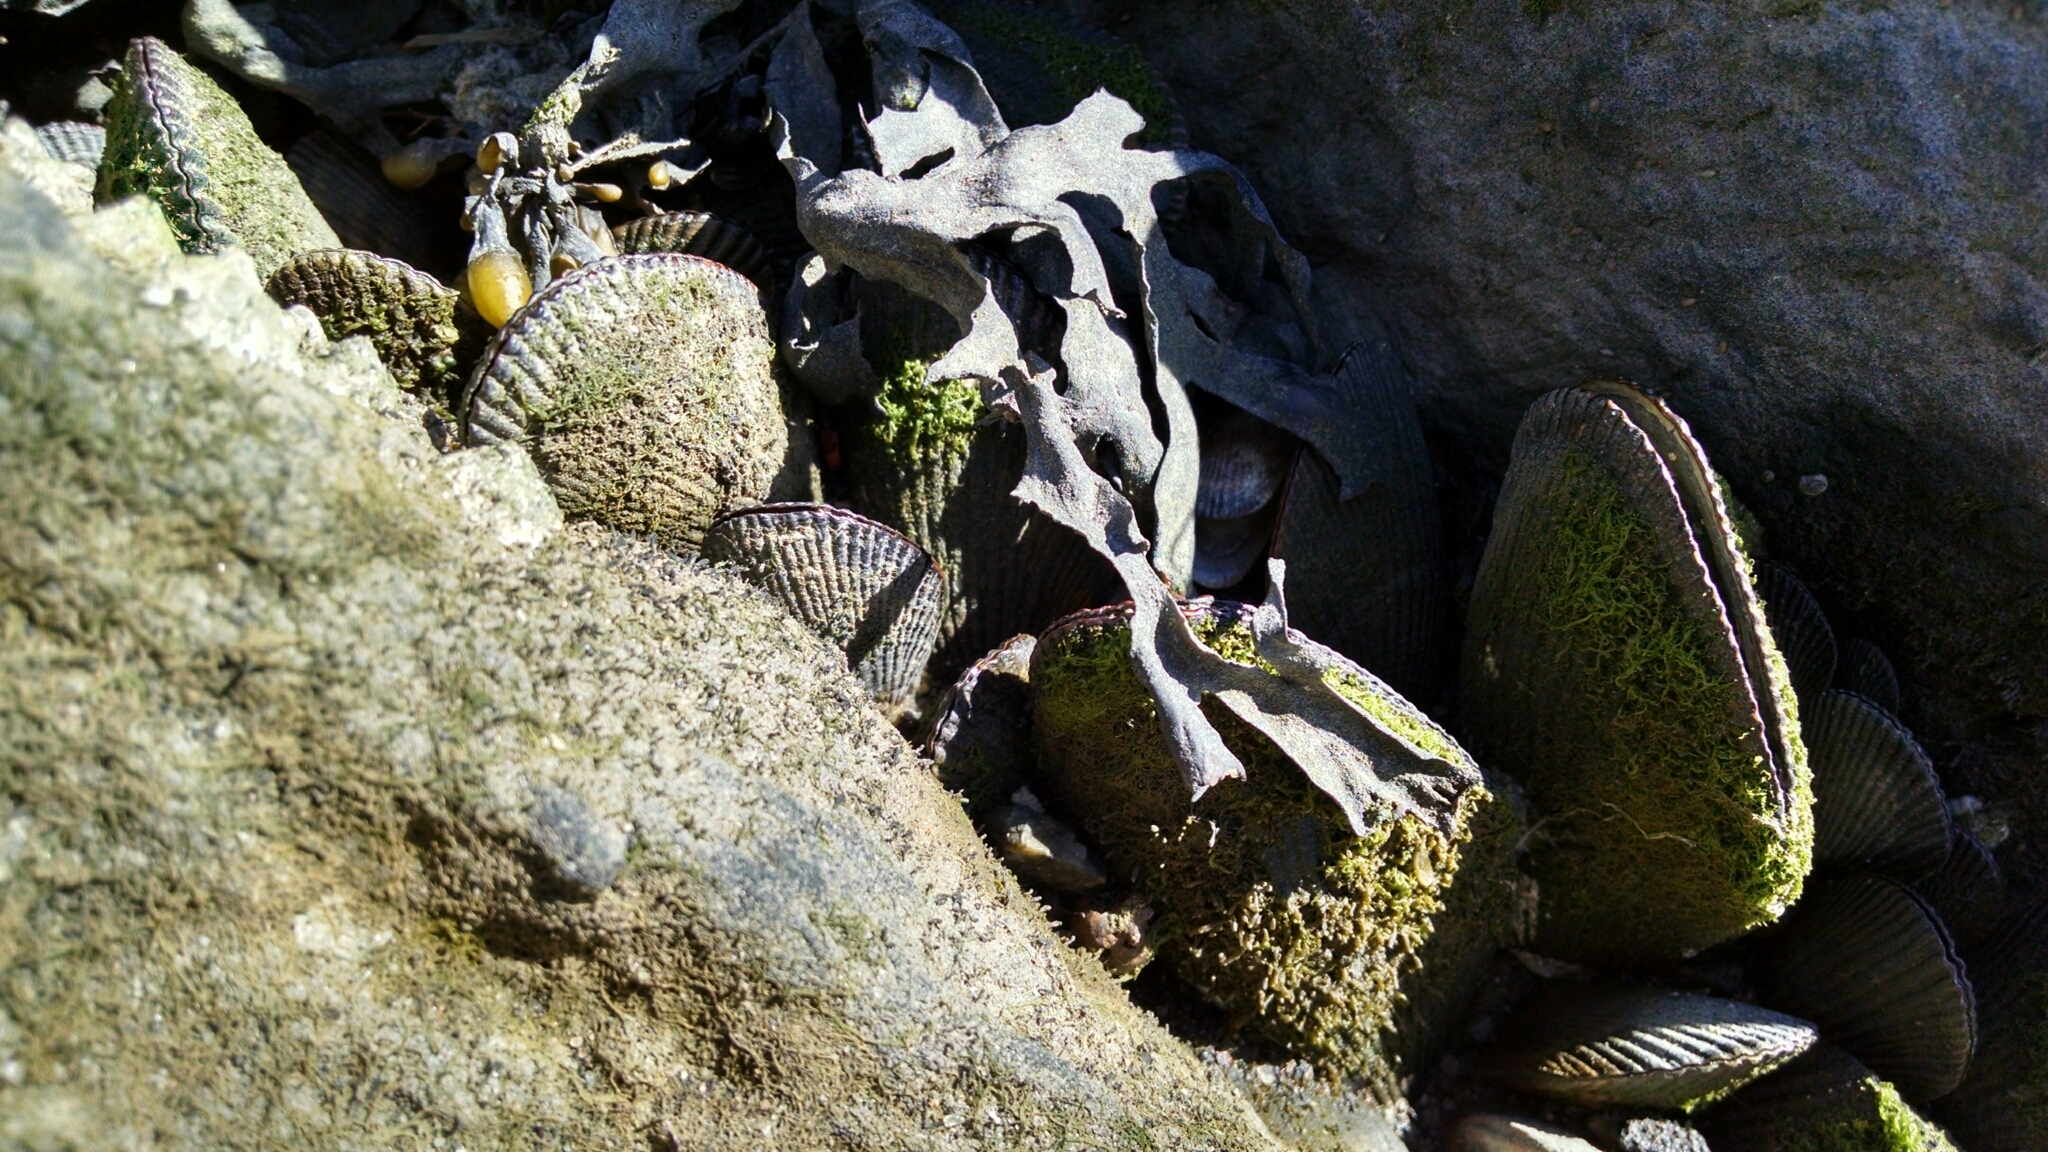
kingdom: Animalia
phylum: Mollusca
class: Bivalvia
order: Mytilida
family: Mytilidae
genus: Geukensia
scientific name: Geukensia demissa
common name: Ribbed mussel
